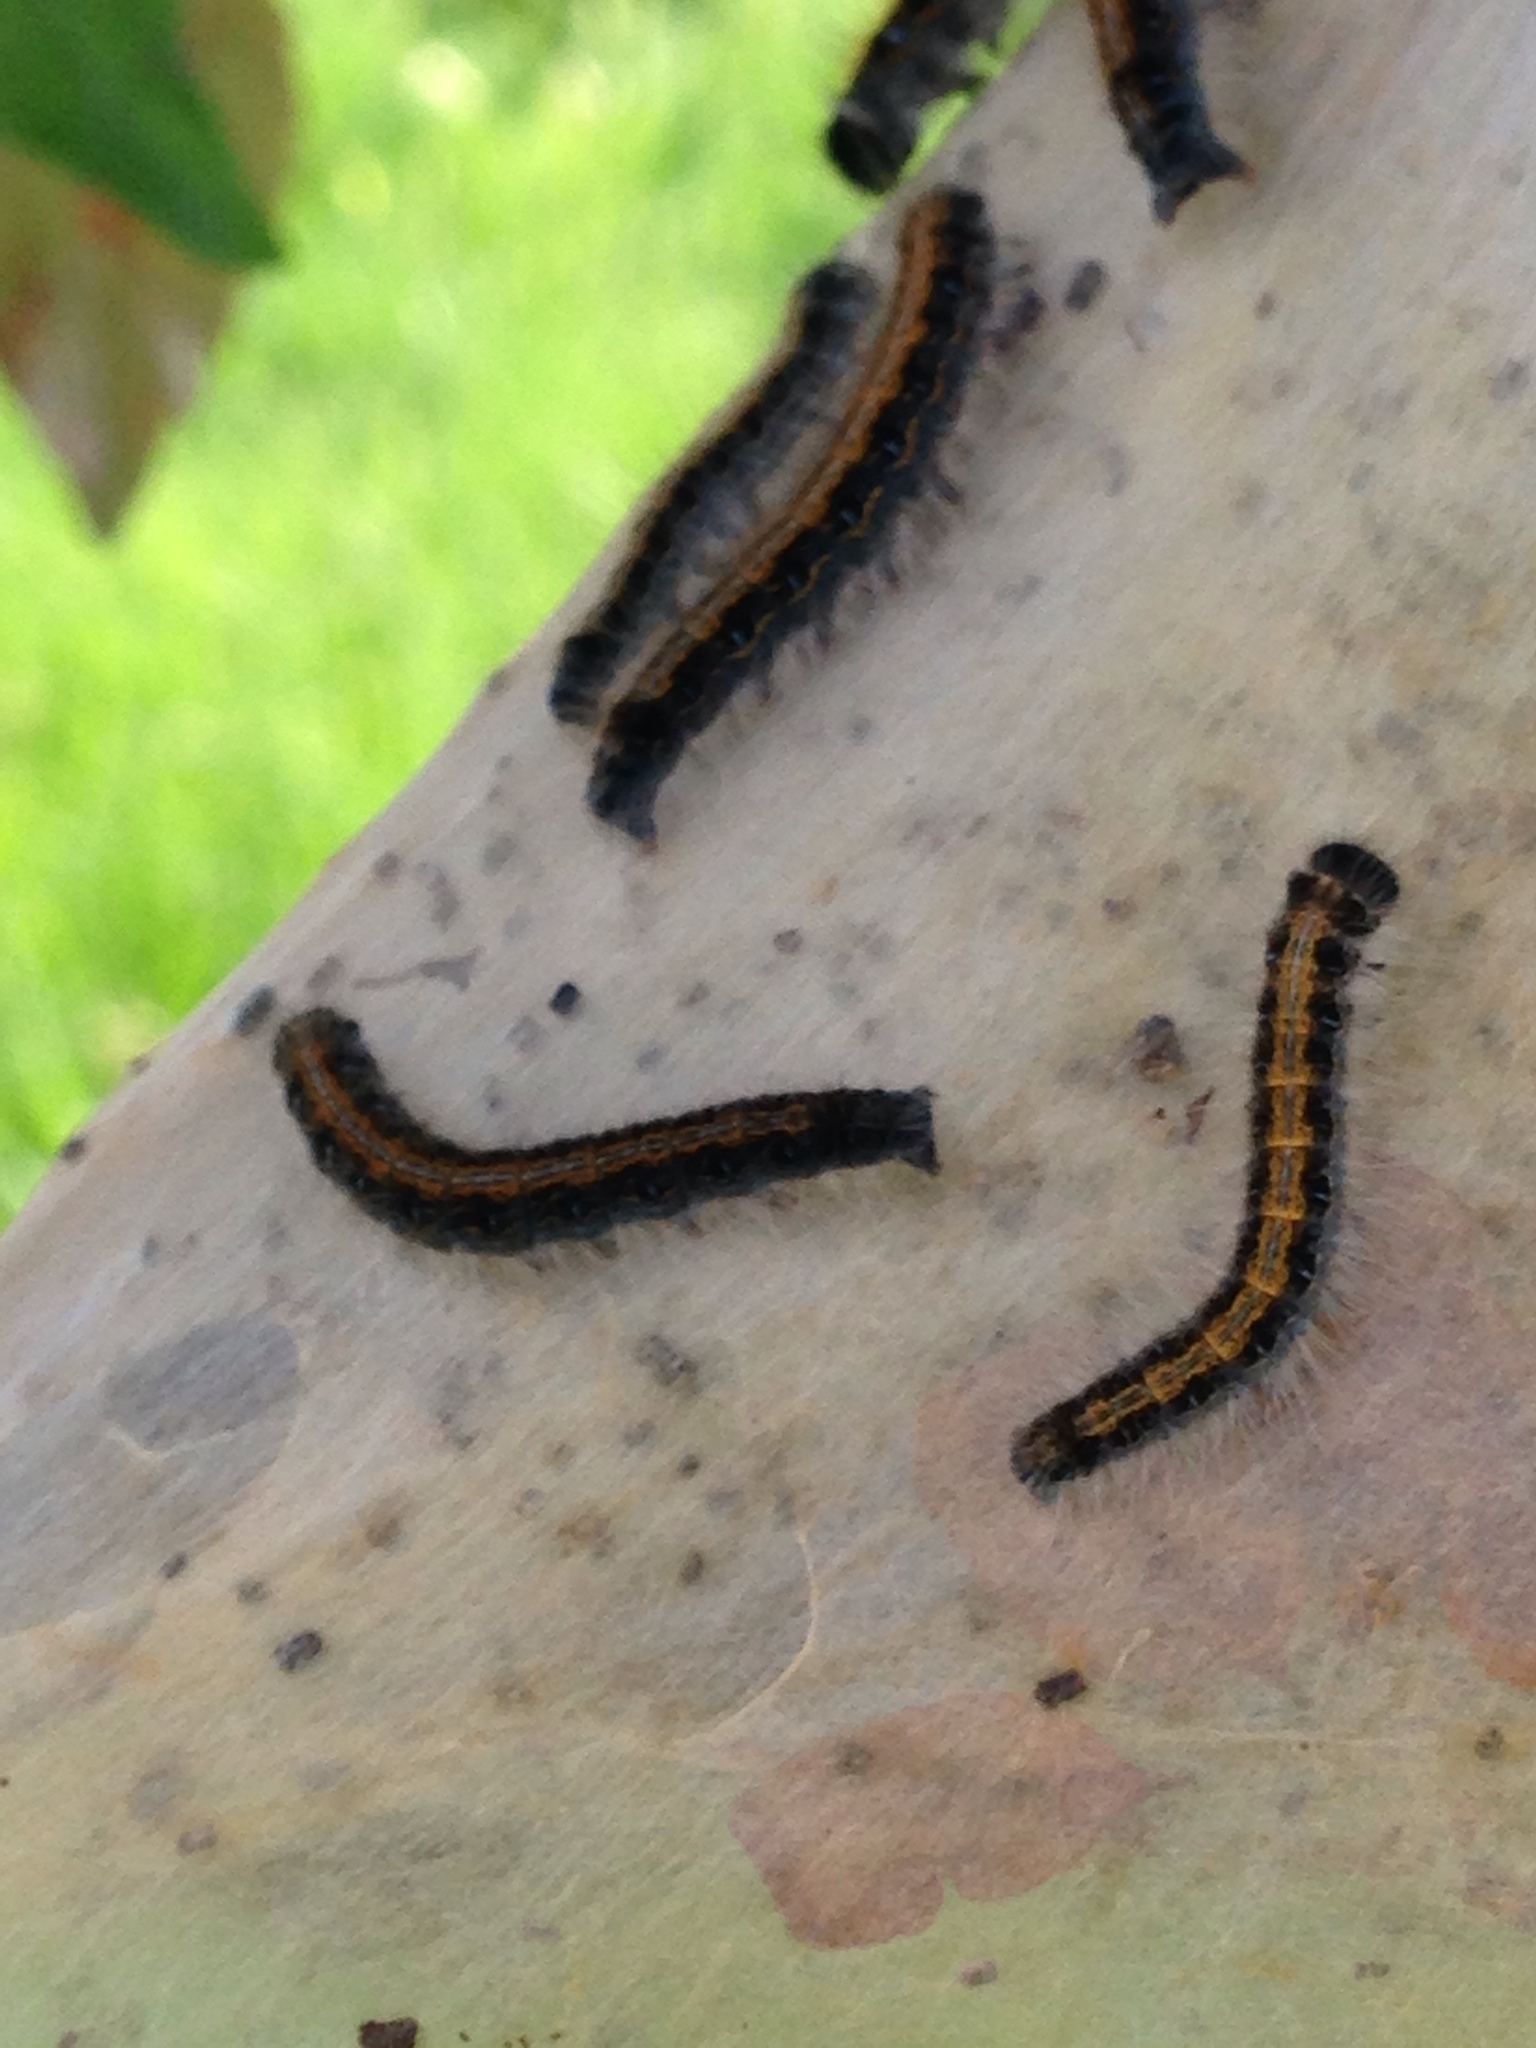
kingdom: Animalia
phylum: Arthropoda
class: Insecta
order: Lepidoptera
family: Lasiocampidae
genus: Malacosoma
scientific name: Malacosoma americana
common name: Eastern tent caterpillar moth
